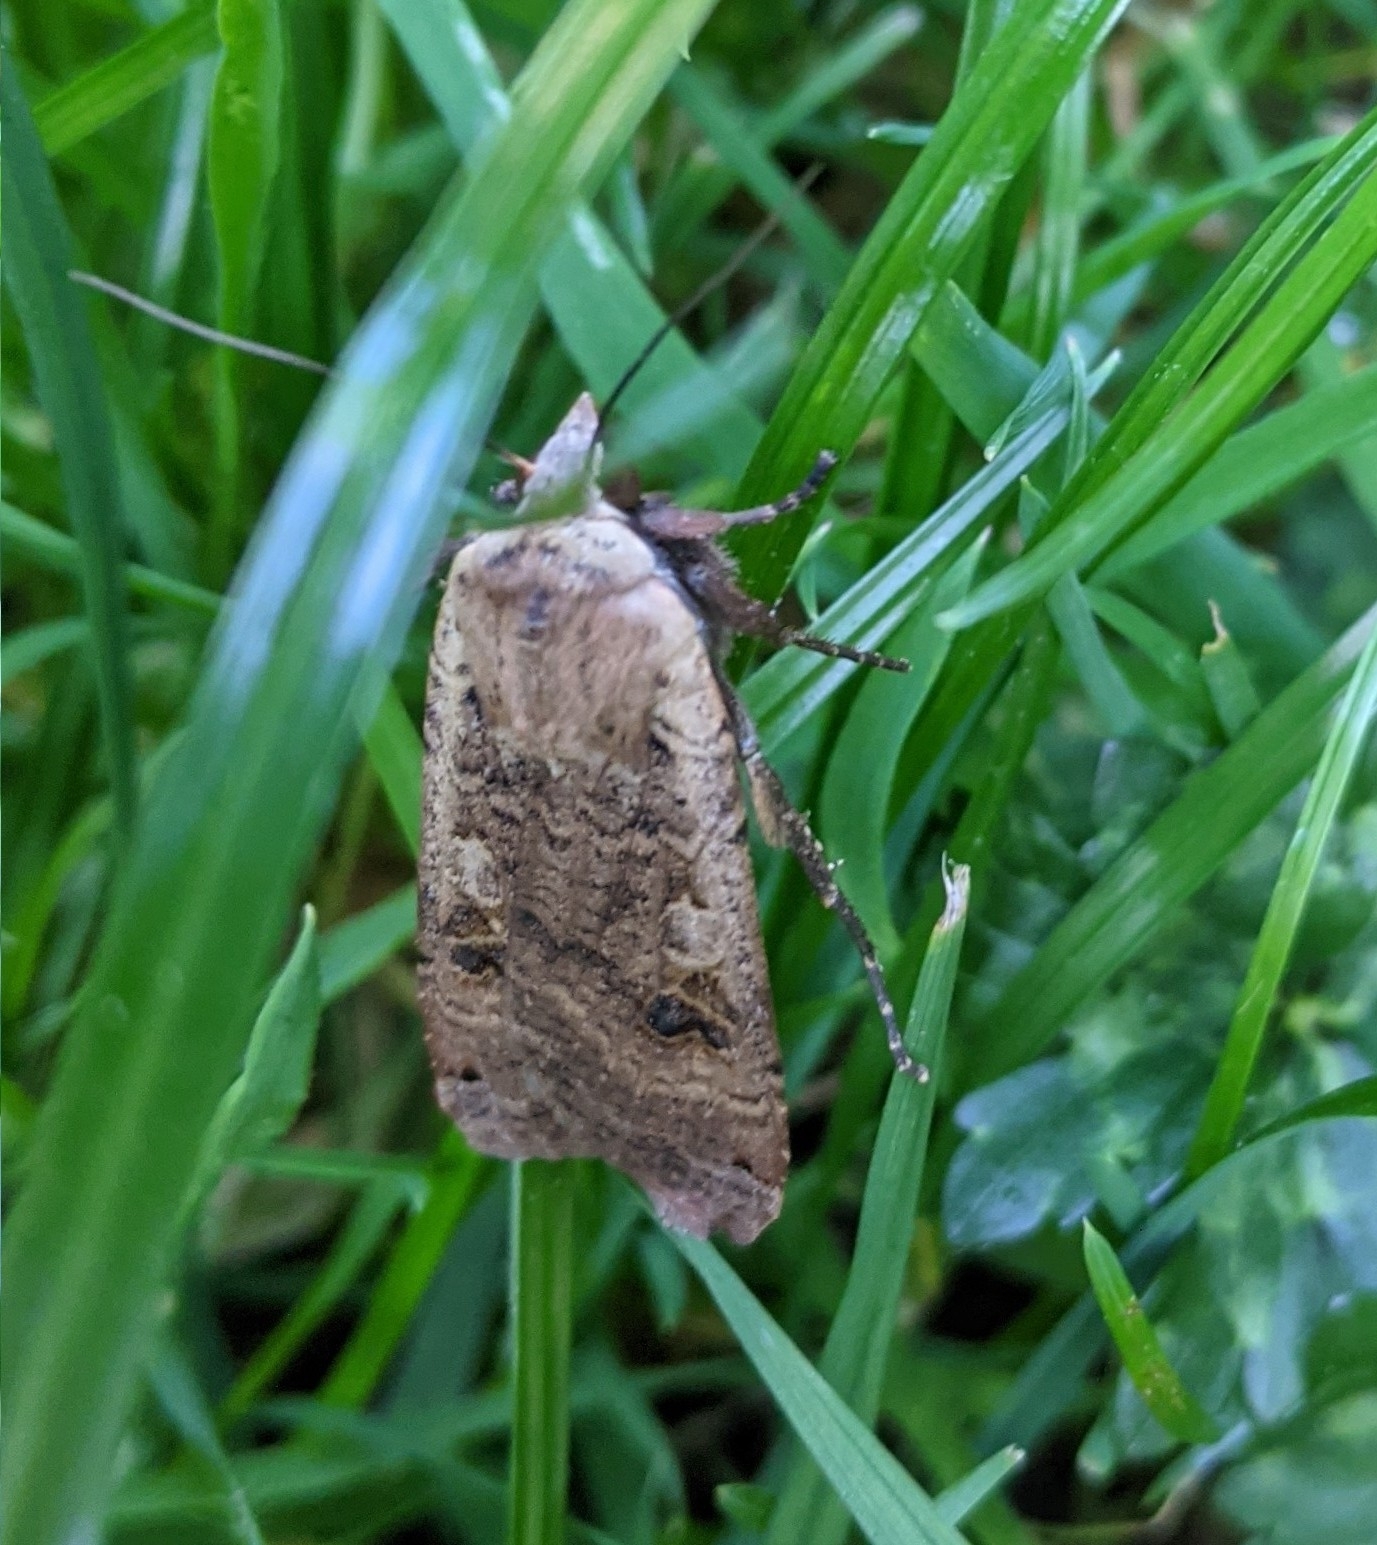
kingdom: Animalia
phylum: Arthropoda
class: Insecta
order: Lepidoptera
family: Noctuidae
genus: Noctua
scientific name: Noctua pronuba
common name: Large yellow underwing
